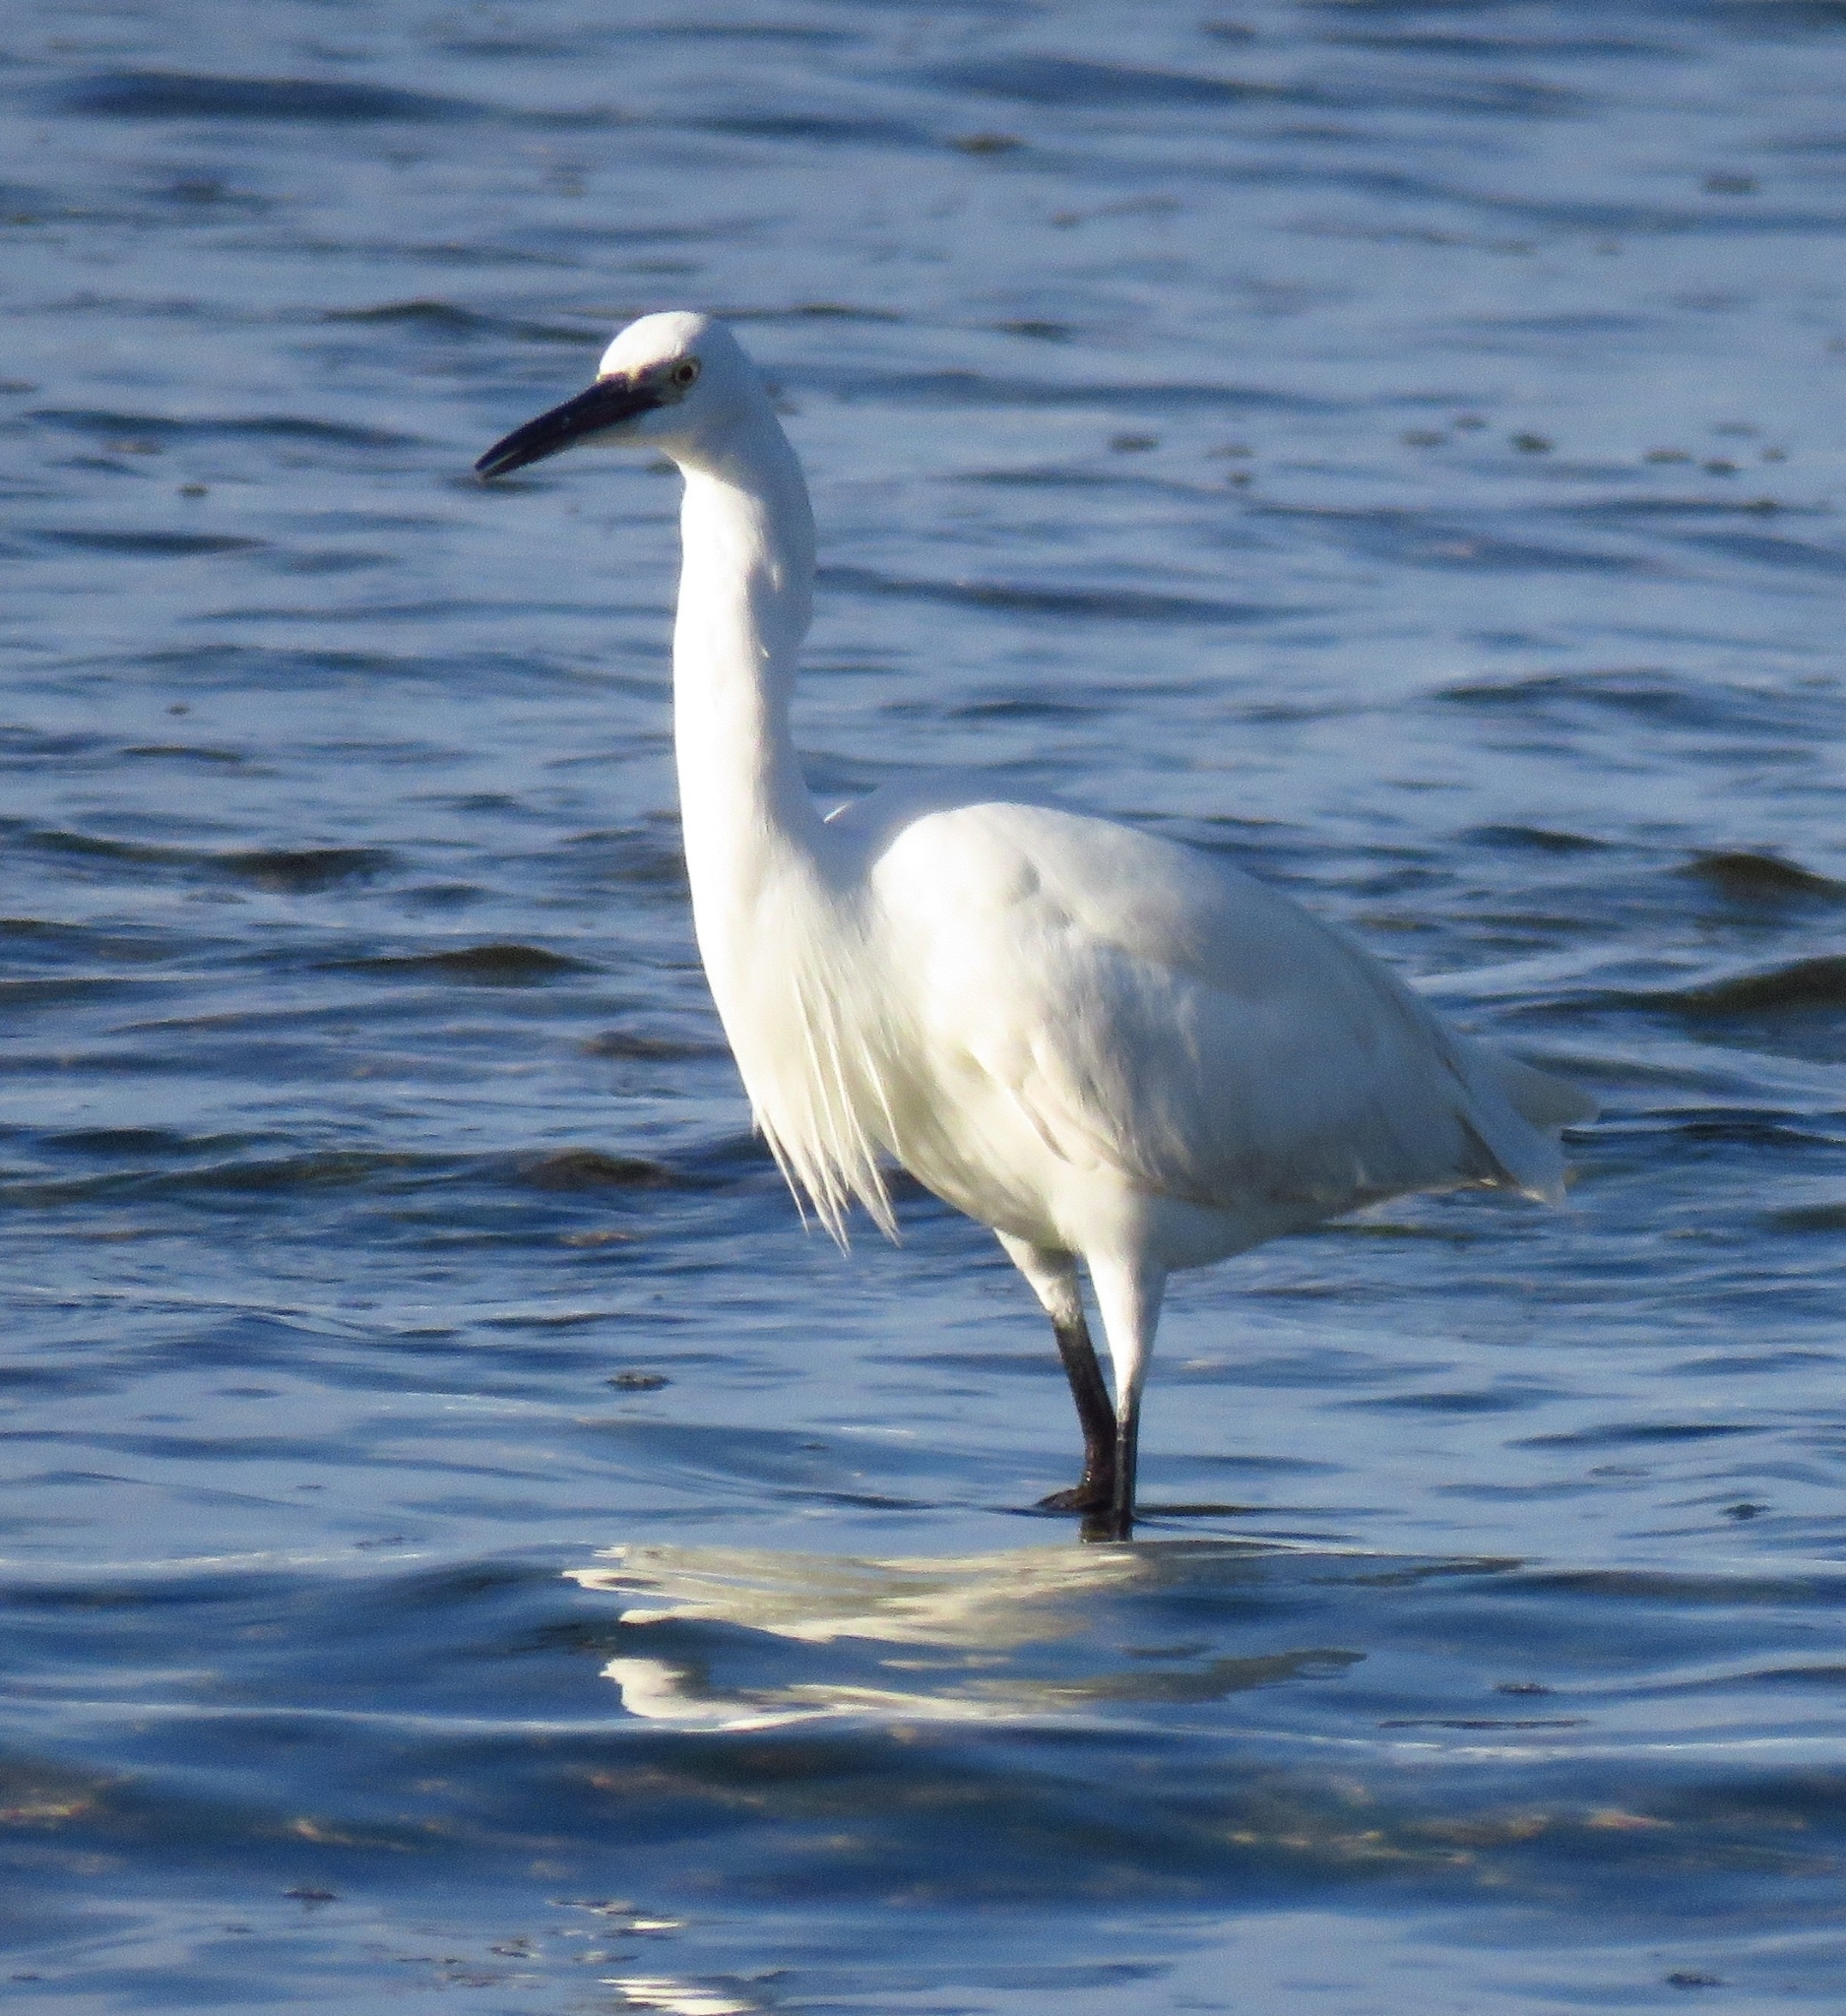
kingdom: Animalia
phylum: Chordata
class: Aves
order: Pelecaniformes
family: Ardeidae
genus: Egretta
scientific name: Egretta garzetta
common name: Little egret
